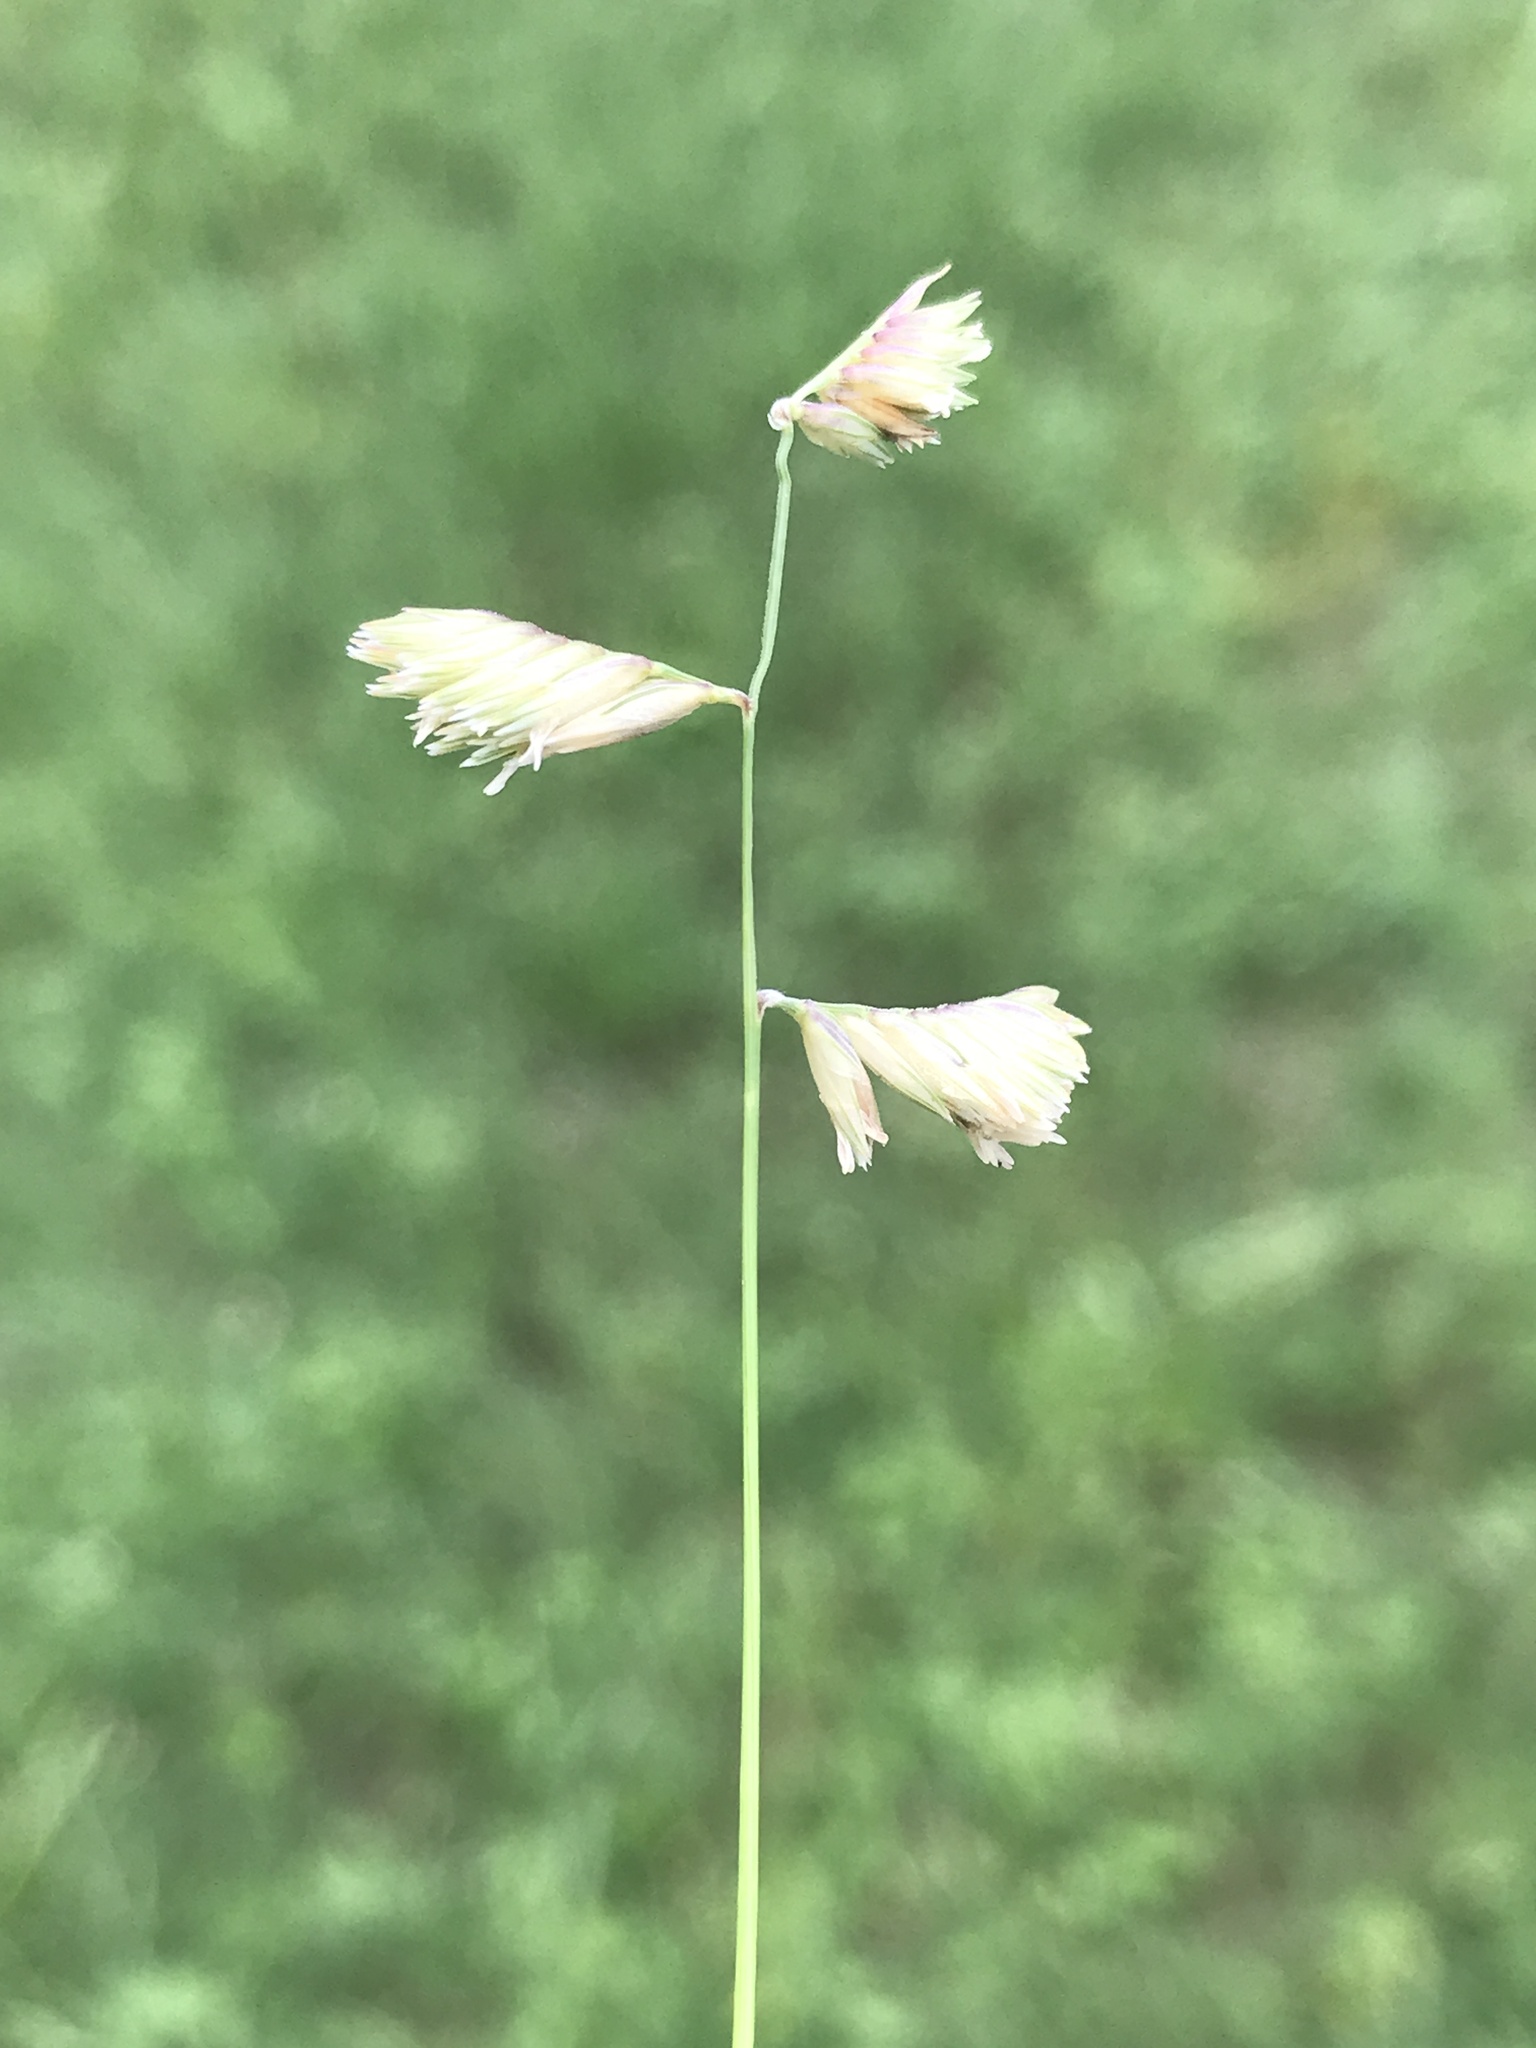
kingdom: Plantae
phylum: Tracheophyta
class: Liliopsida
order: Poales
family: Poaceae
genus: Bouteloua
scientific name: Bouteloua dactyloides
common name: Buffalo grass
